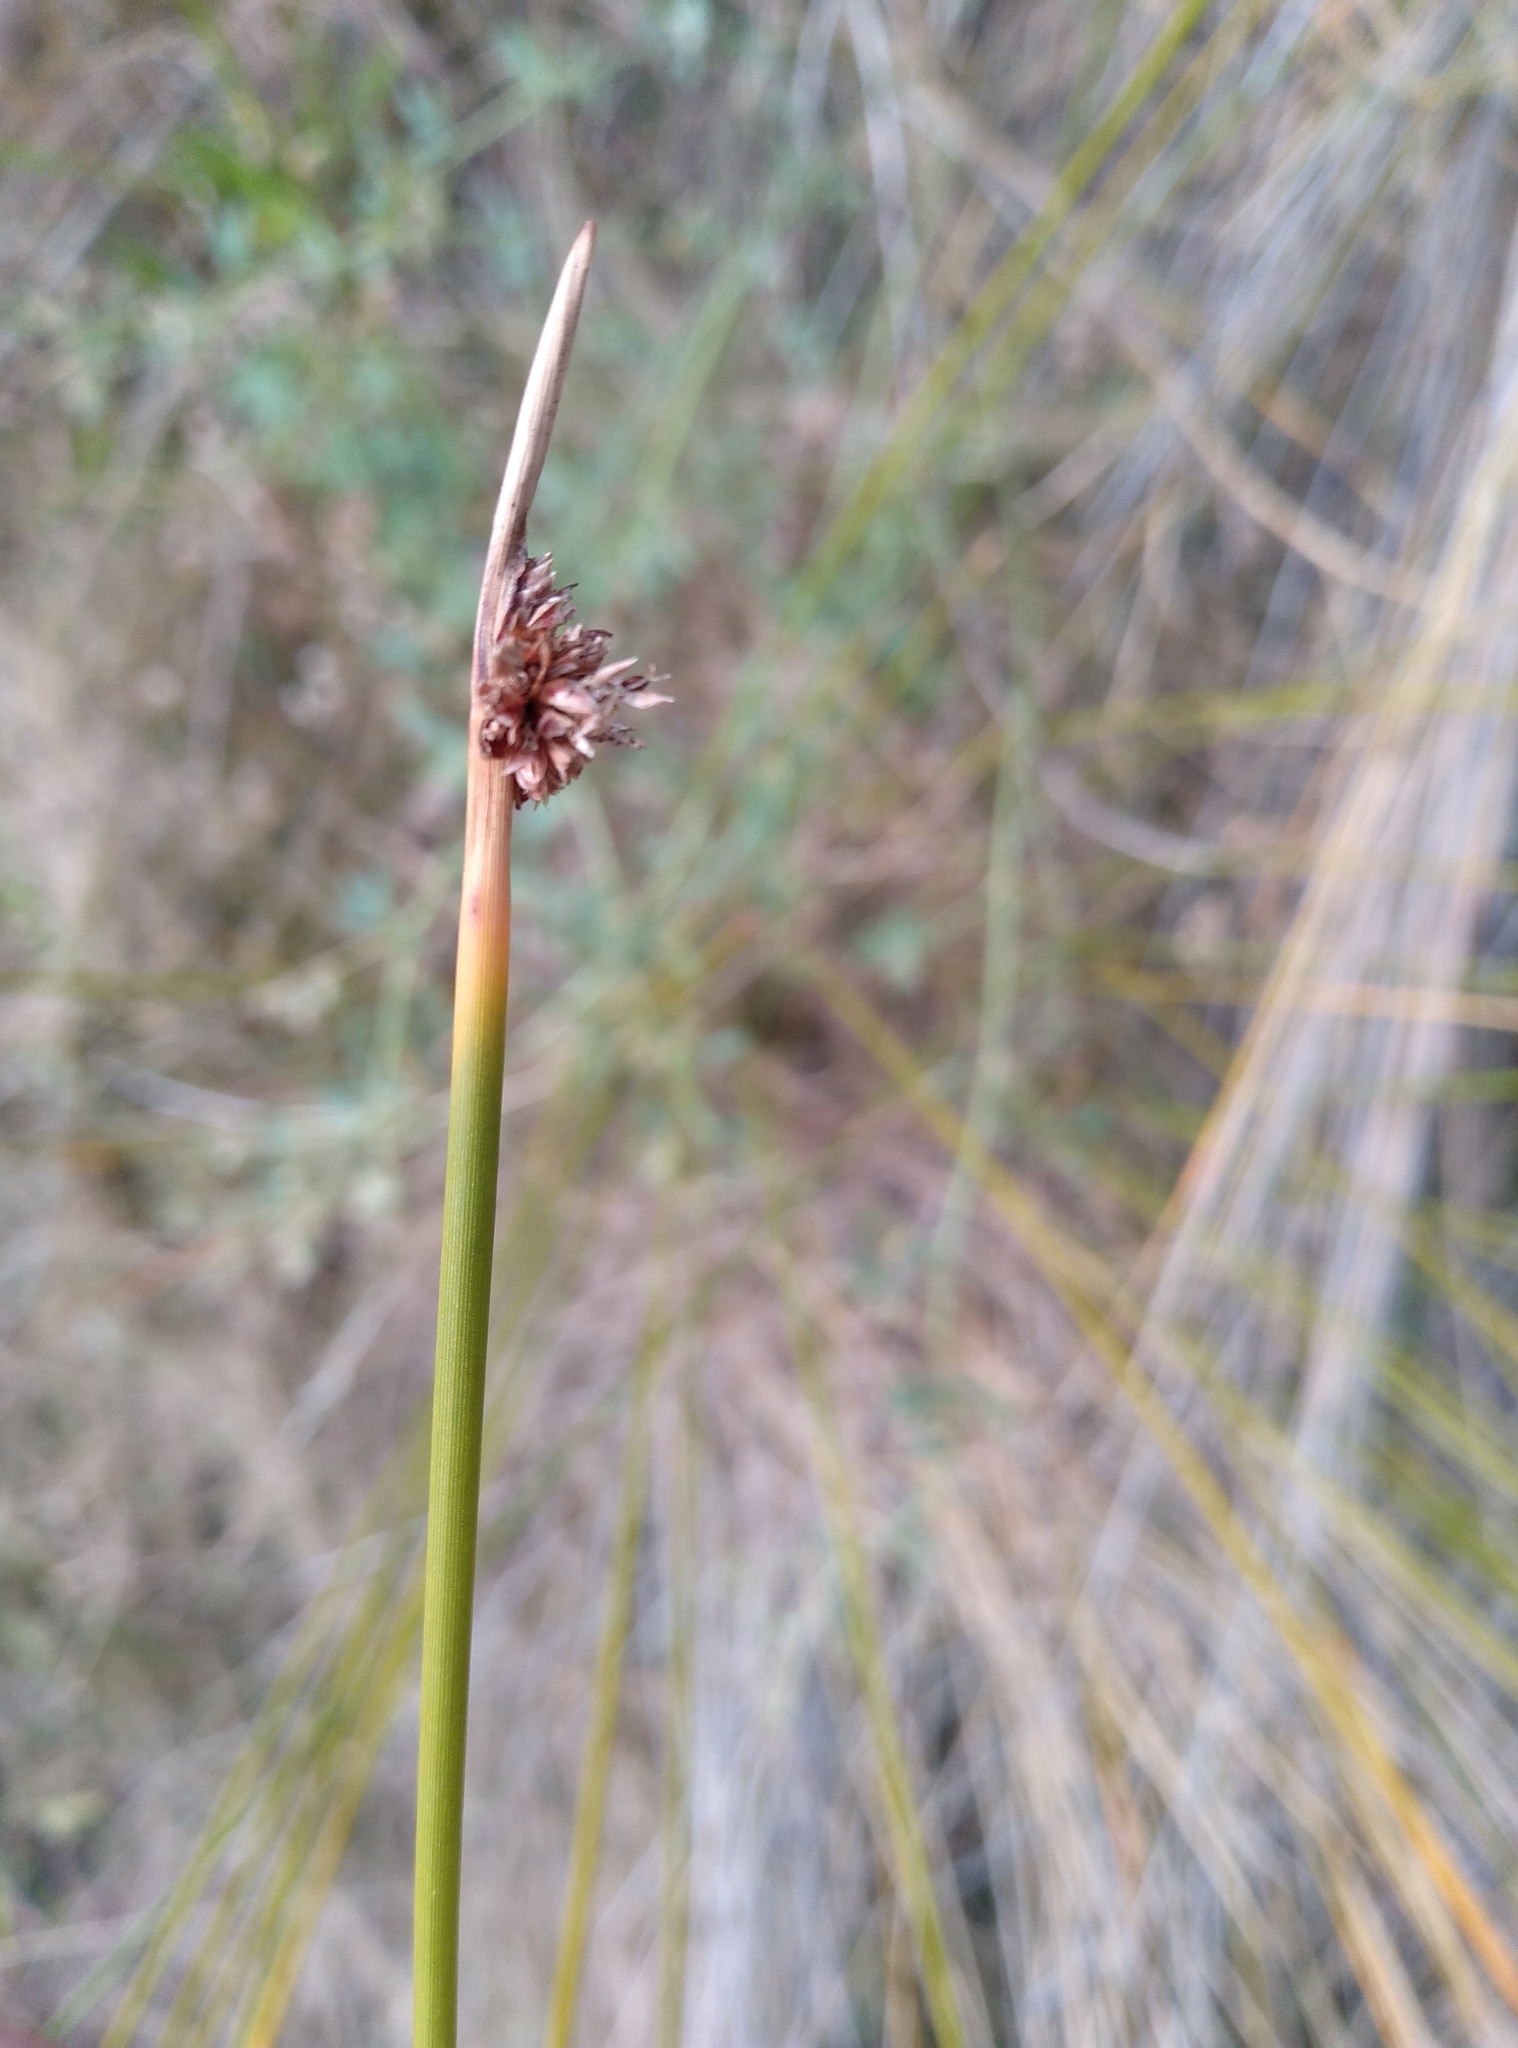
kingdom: Plantae
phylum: Tracheophyta
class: Liliopsida
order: Poales
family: Cyperaceae
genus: Ficinia
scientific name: Ficinia nodosa
